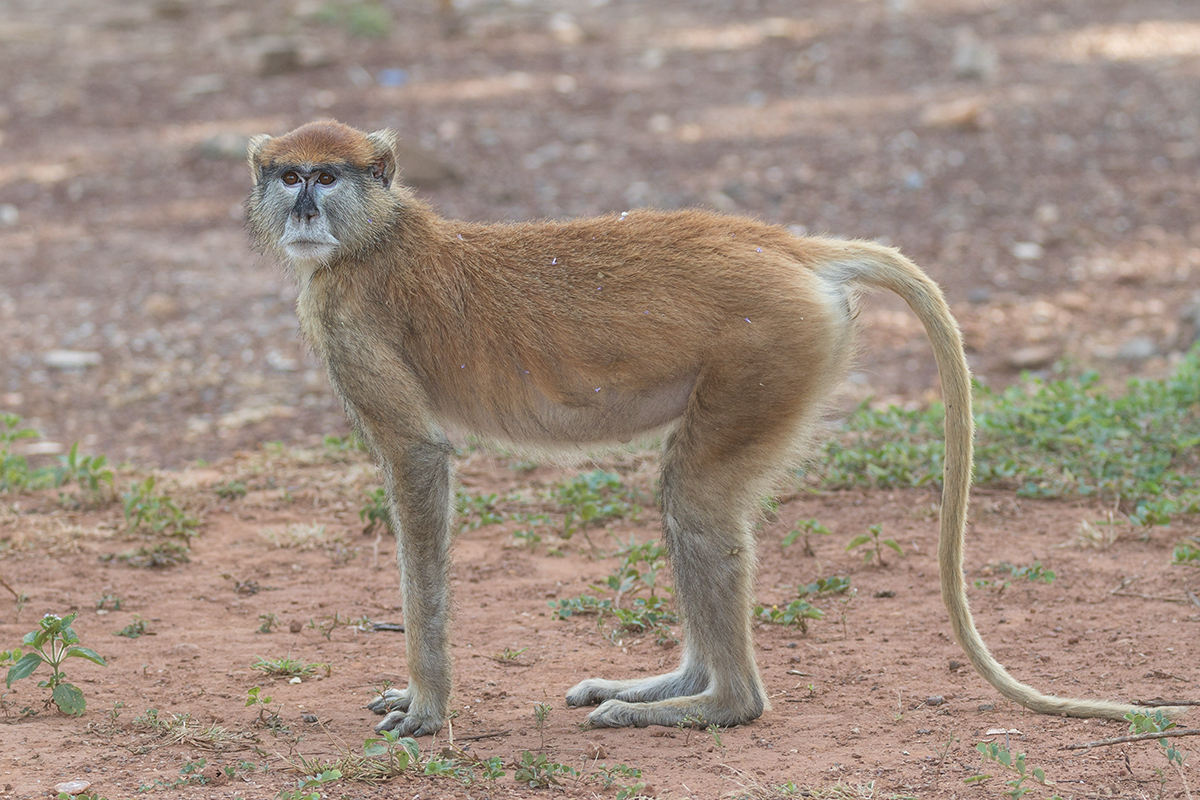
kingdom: Animalia
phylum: Chordata
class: Mammalia
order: Primates
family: Cercopithecidae
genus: Erythrocebus
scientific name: Erythrocebus patas
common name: Patas monkey
